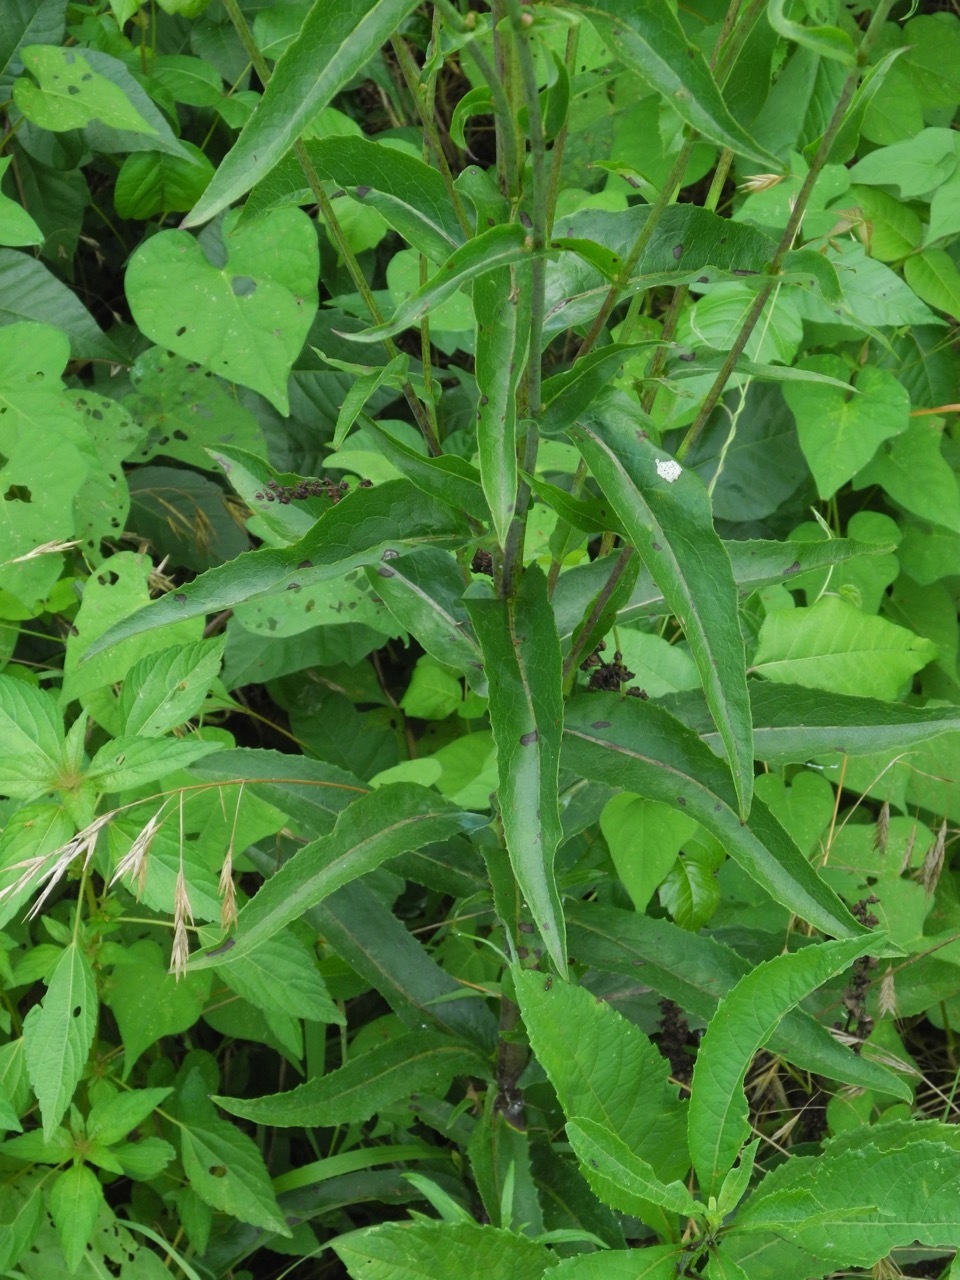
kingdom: Plantae
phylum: Tracheophyta
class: Magnoliopsida
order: Asterales
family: Asteraceae
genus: Lactuca
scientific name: Lactuca canadensis
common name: Canada lettuce
